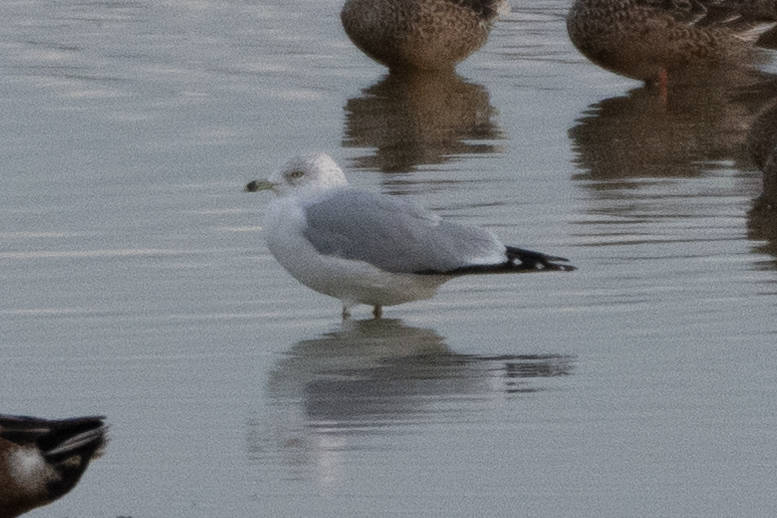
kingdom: Animalia
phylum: Chordata
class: Aves
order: Charadriiformes
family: Laridae
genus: Larus
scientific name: Larus delawarensis
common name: Ring-billed gull
